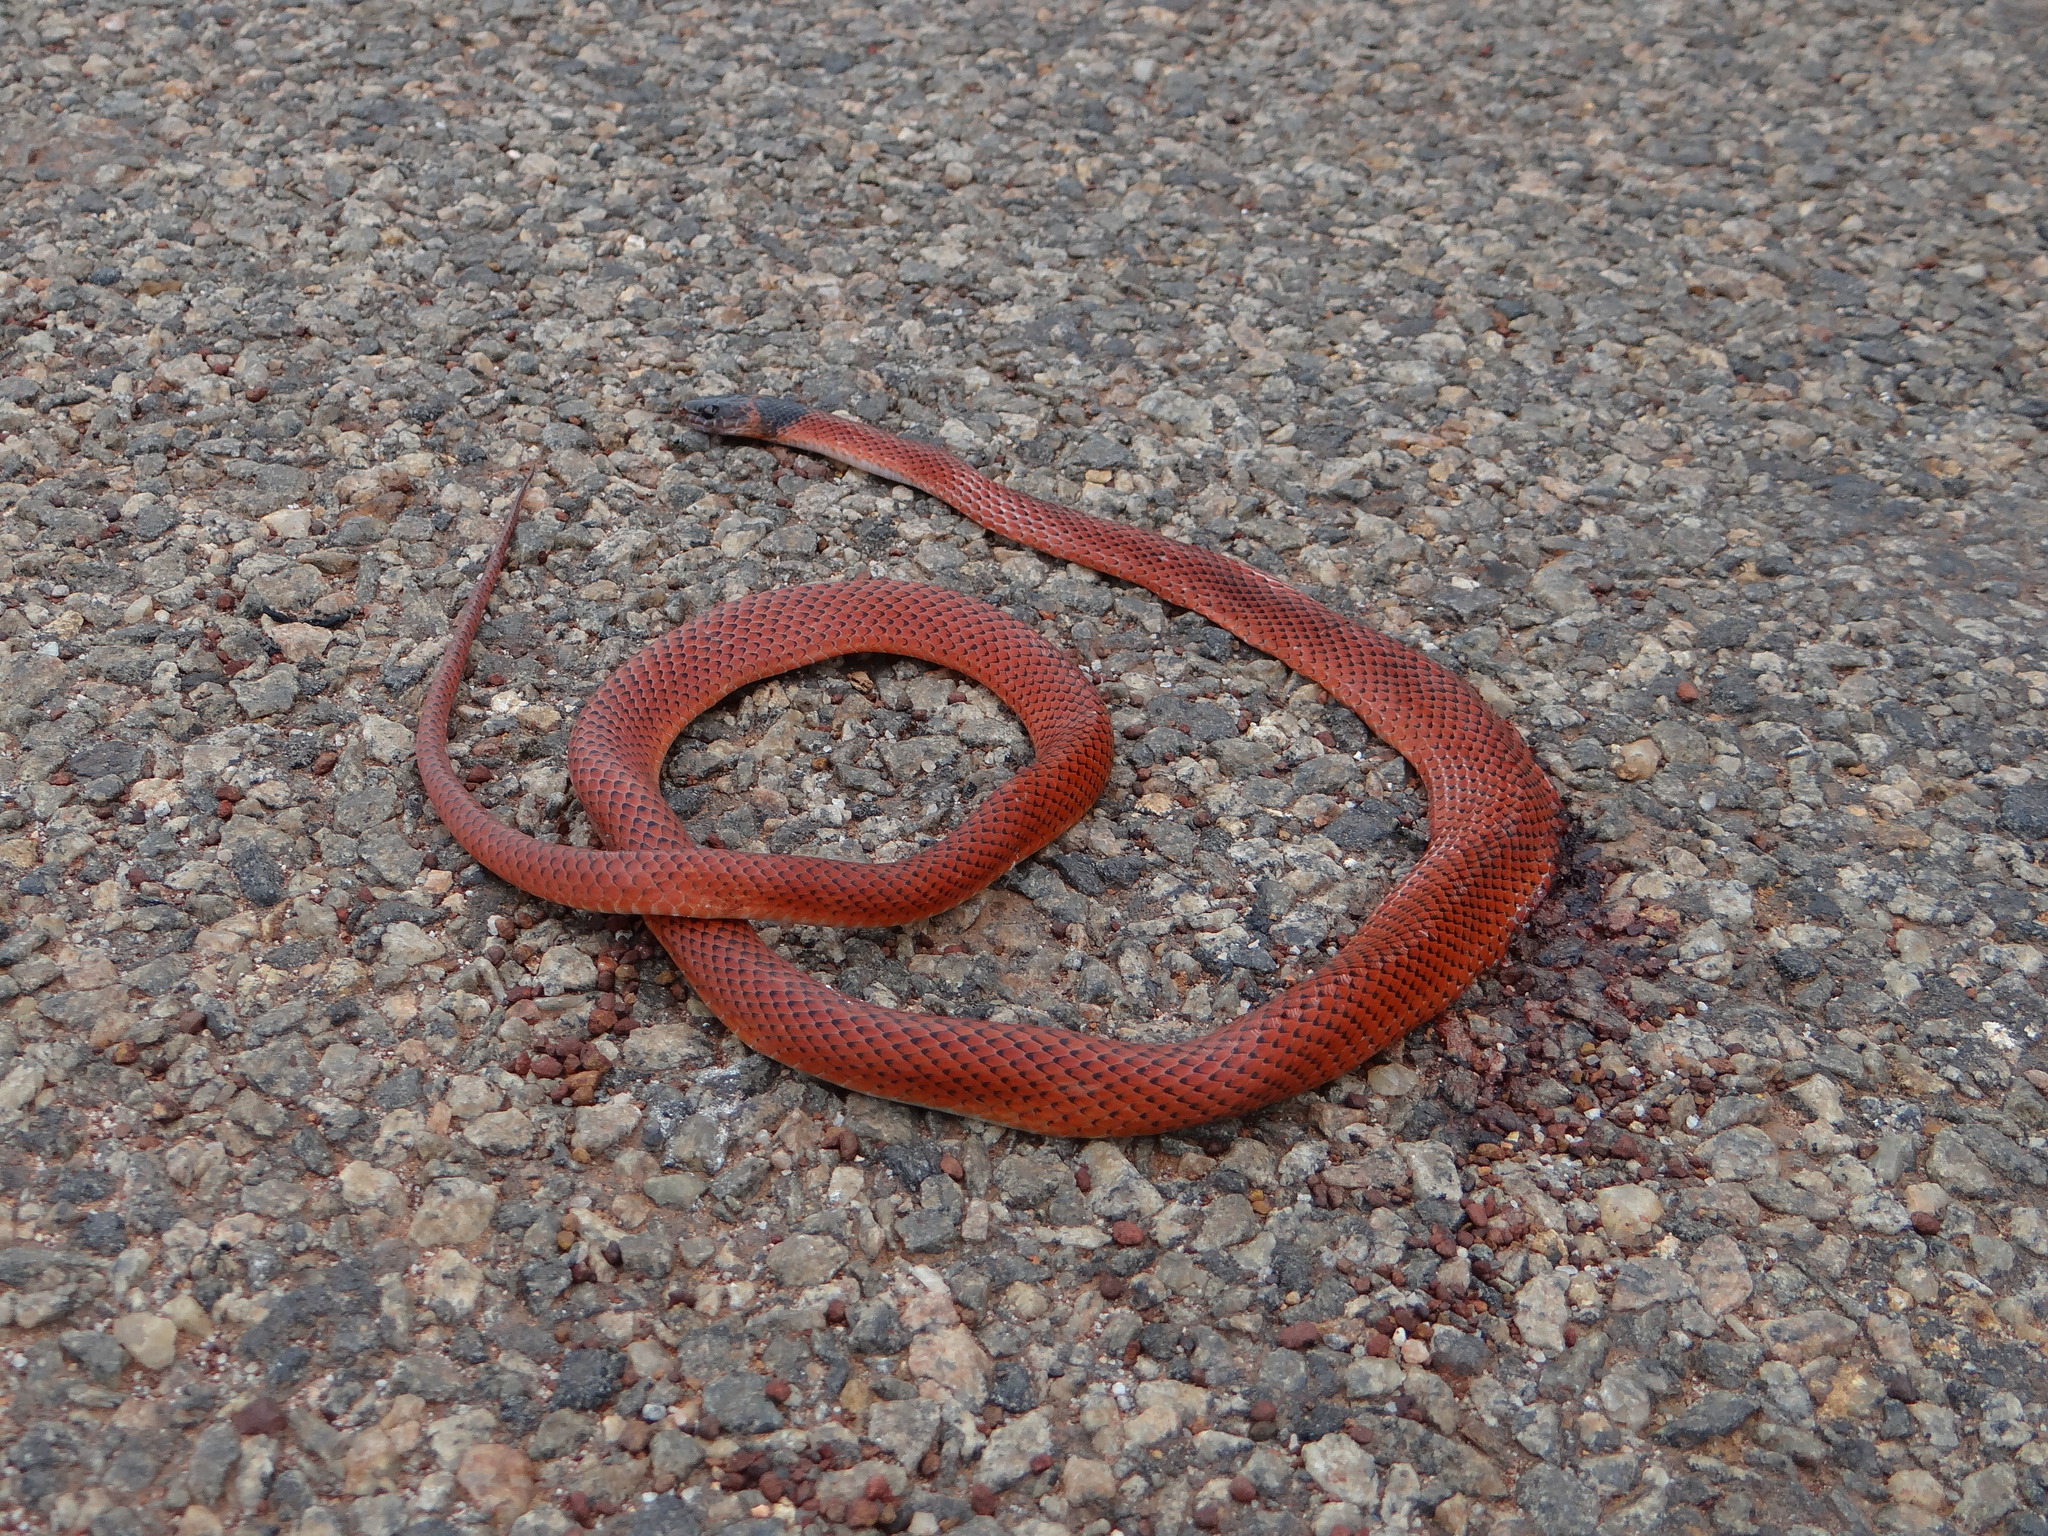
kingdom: Animalia
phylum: Chordata
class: Squamata
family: Colubridae
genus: Oxyrhopus
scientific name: Oxyrhopus melanogenys
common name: Tschudi's false coral snake
